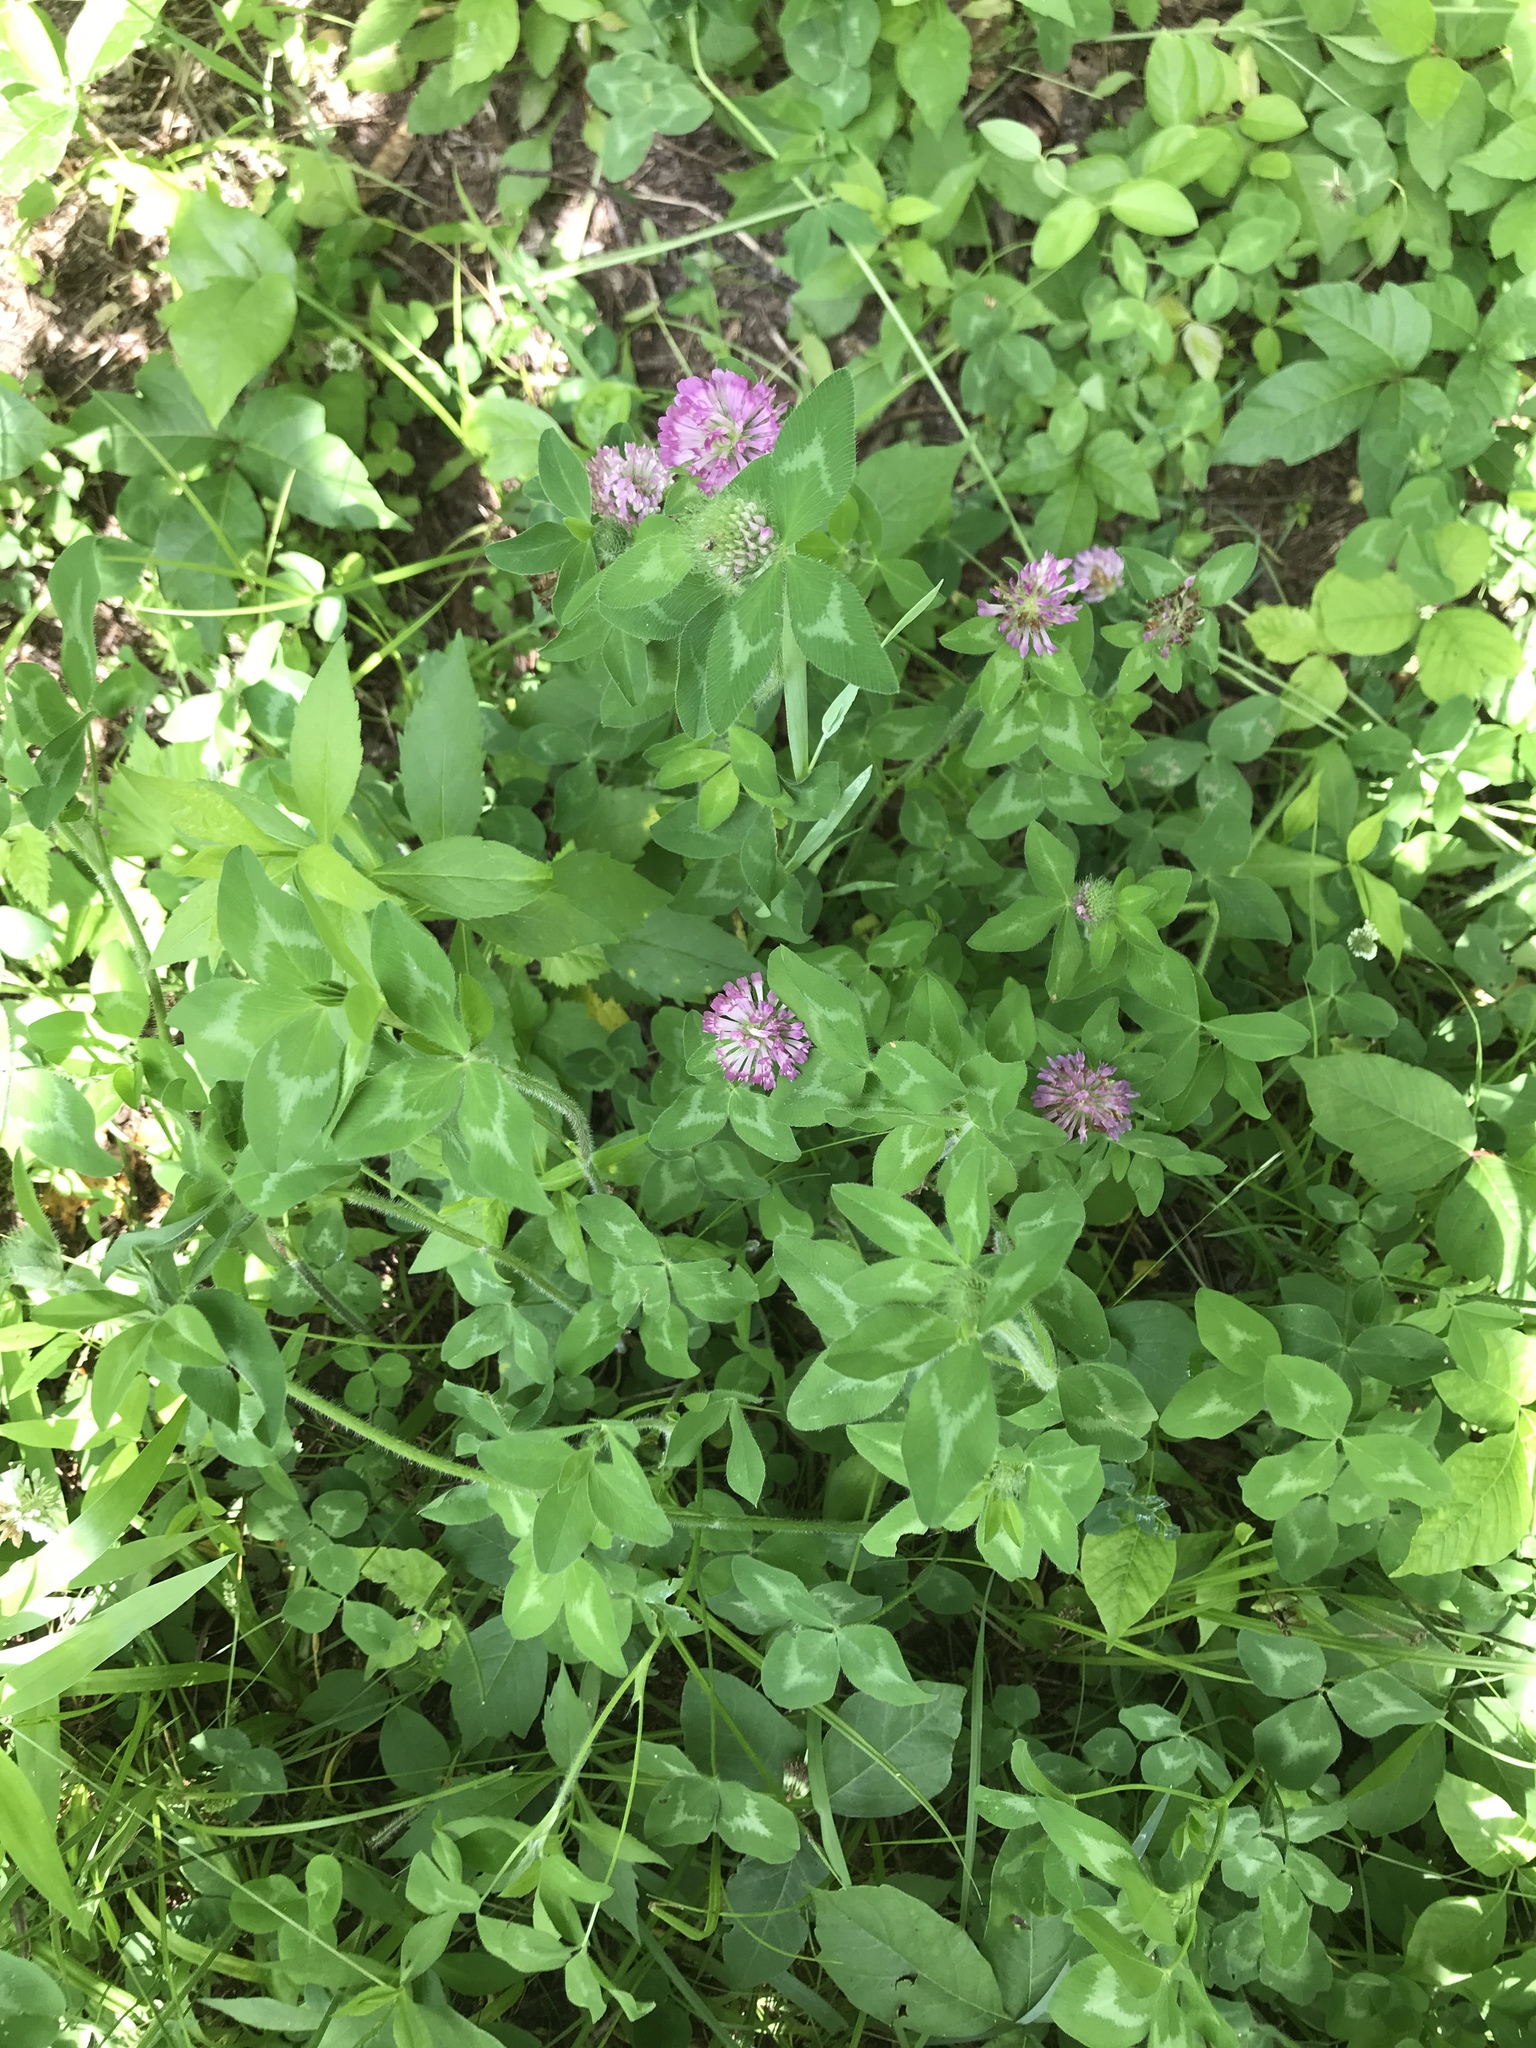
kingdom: Plantae
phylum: Tracheophyta
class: Magnoliopsida
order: Fabales
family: Fabaceae
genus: Trifolium
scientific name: Trifolium pratense
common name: Red clover
